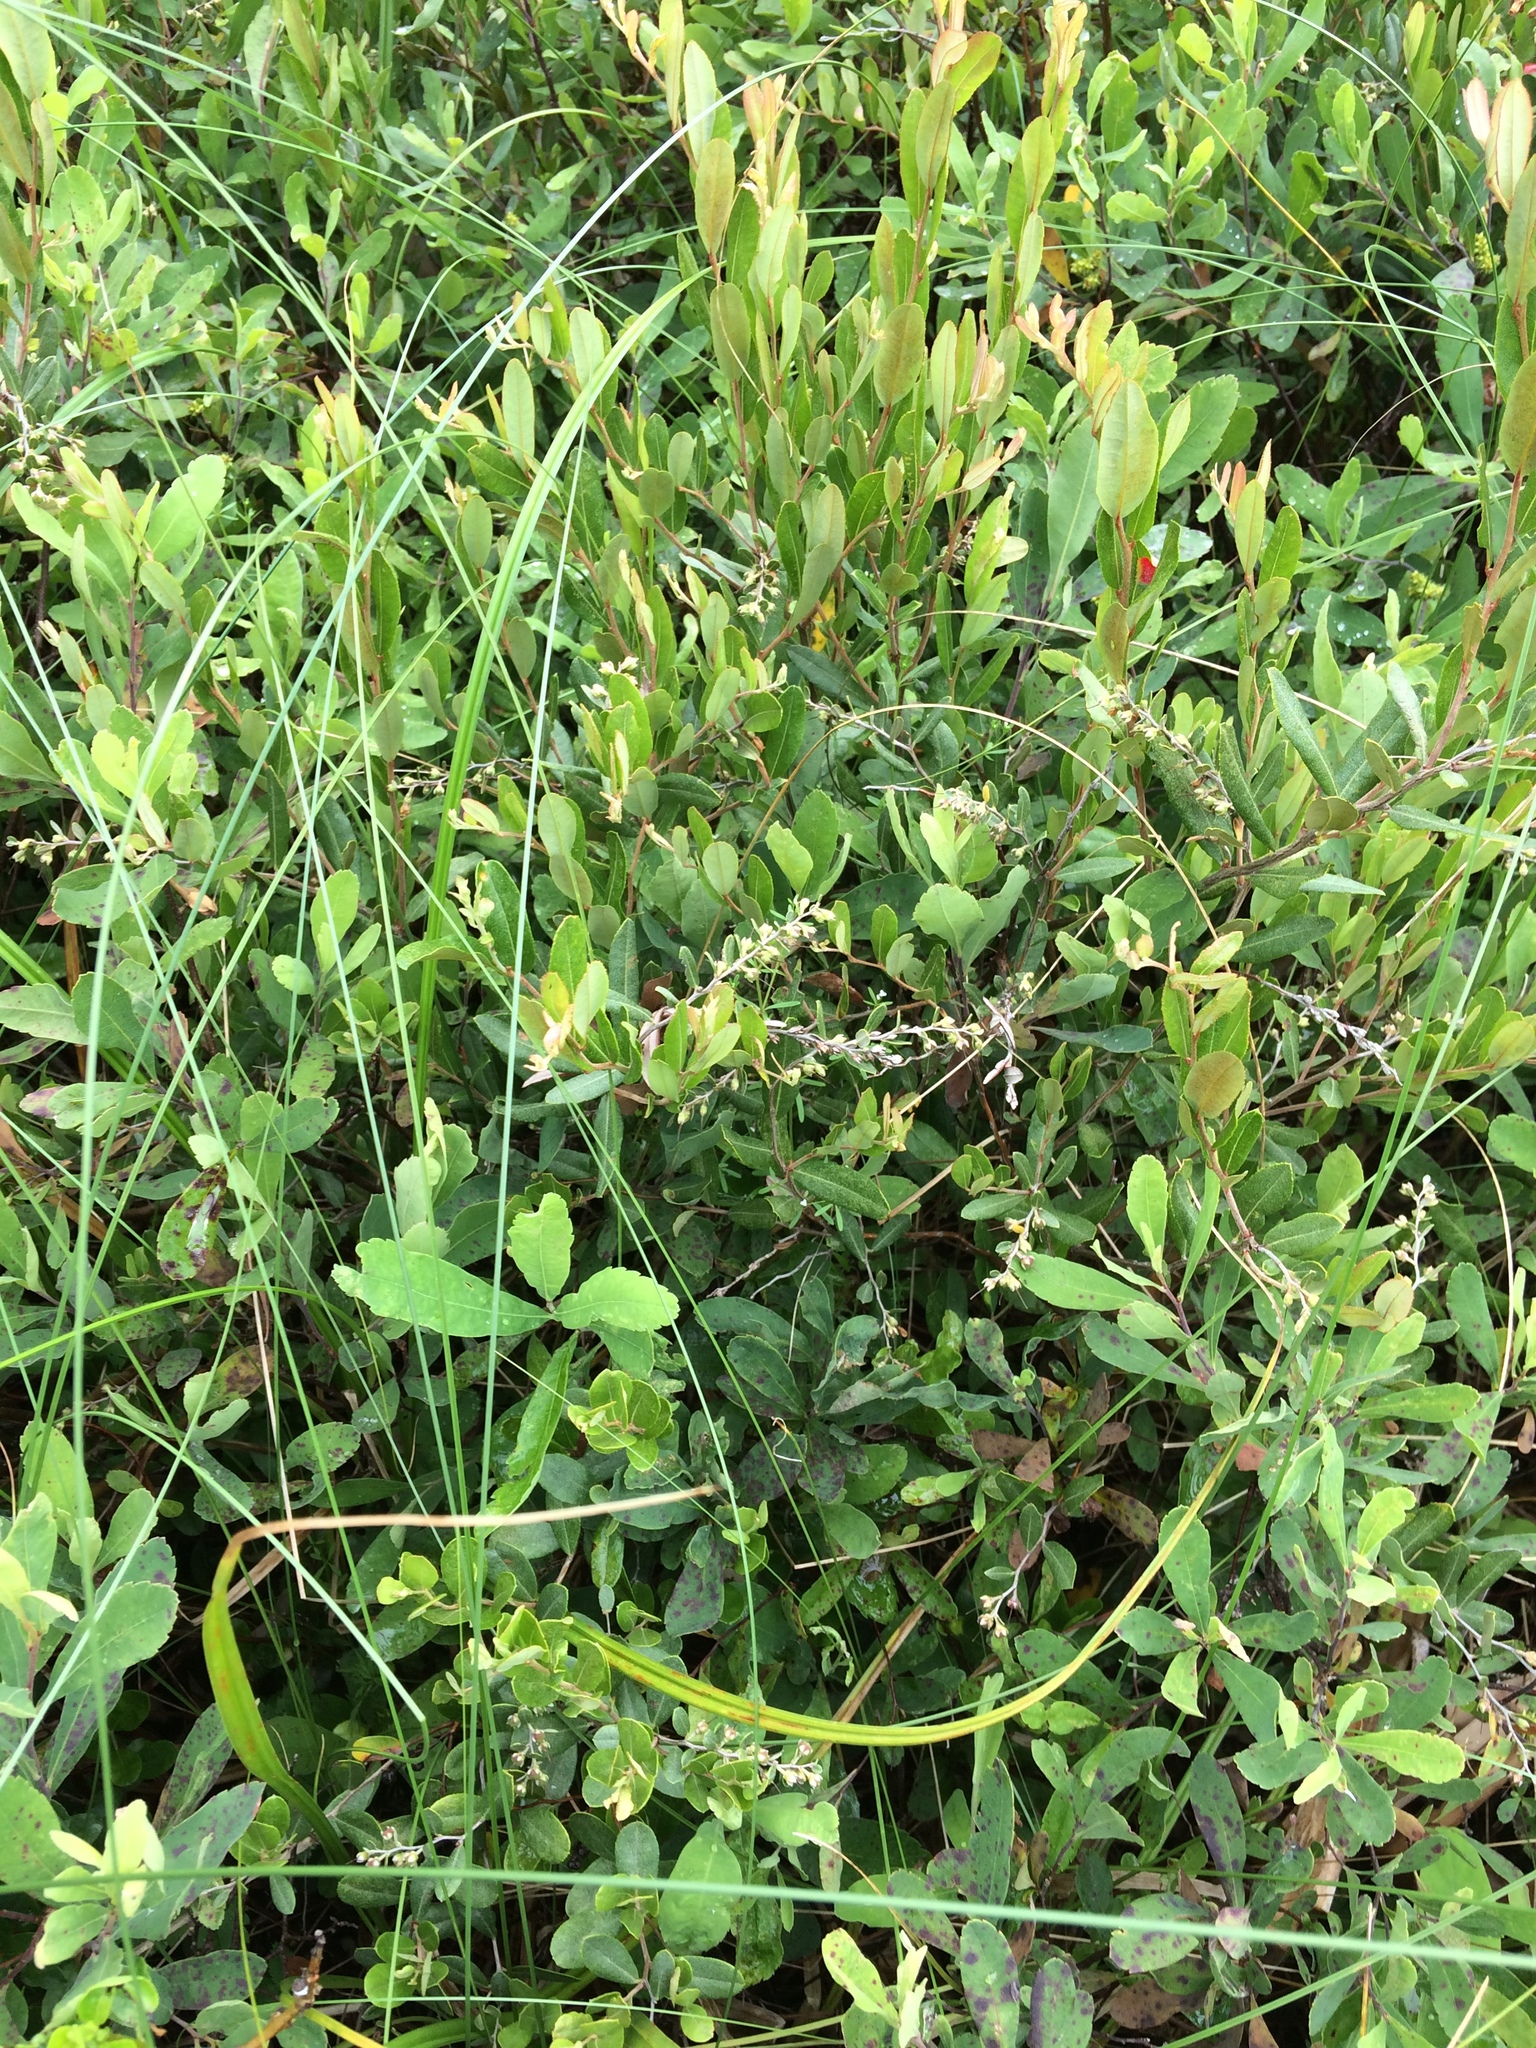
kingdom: Plantae
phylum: Tracheophyta
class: Magnoliopsida
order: Ericales
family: Ericaceae
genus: Chamaedaphne
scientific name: Chamaedaphne calyculata
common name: Leatherleaf
